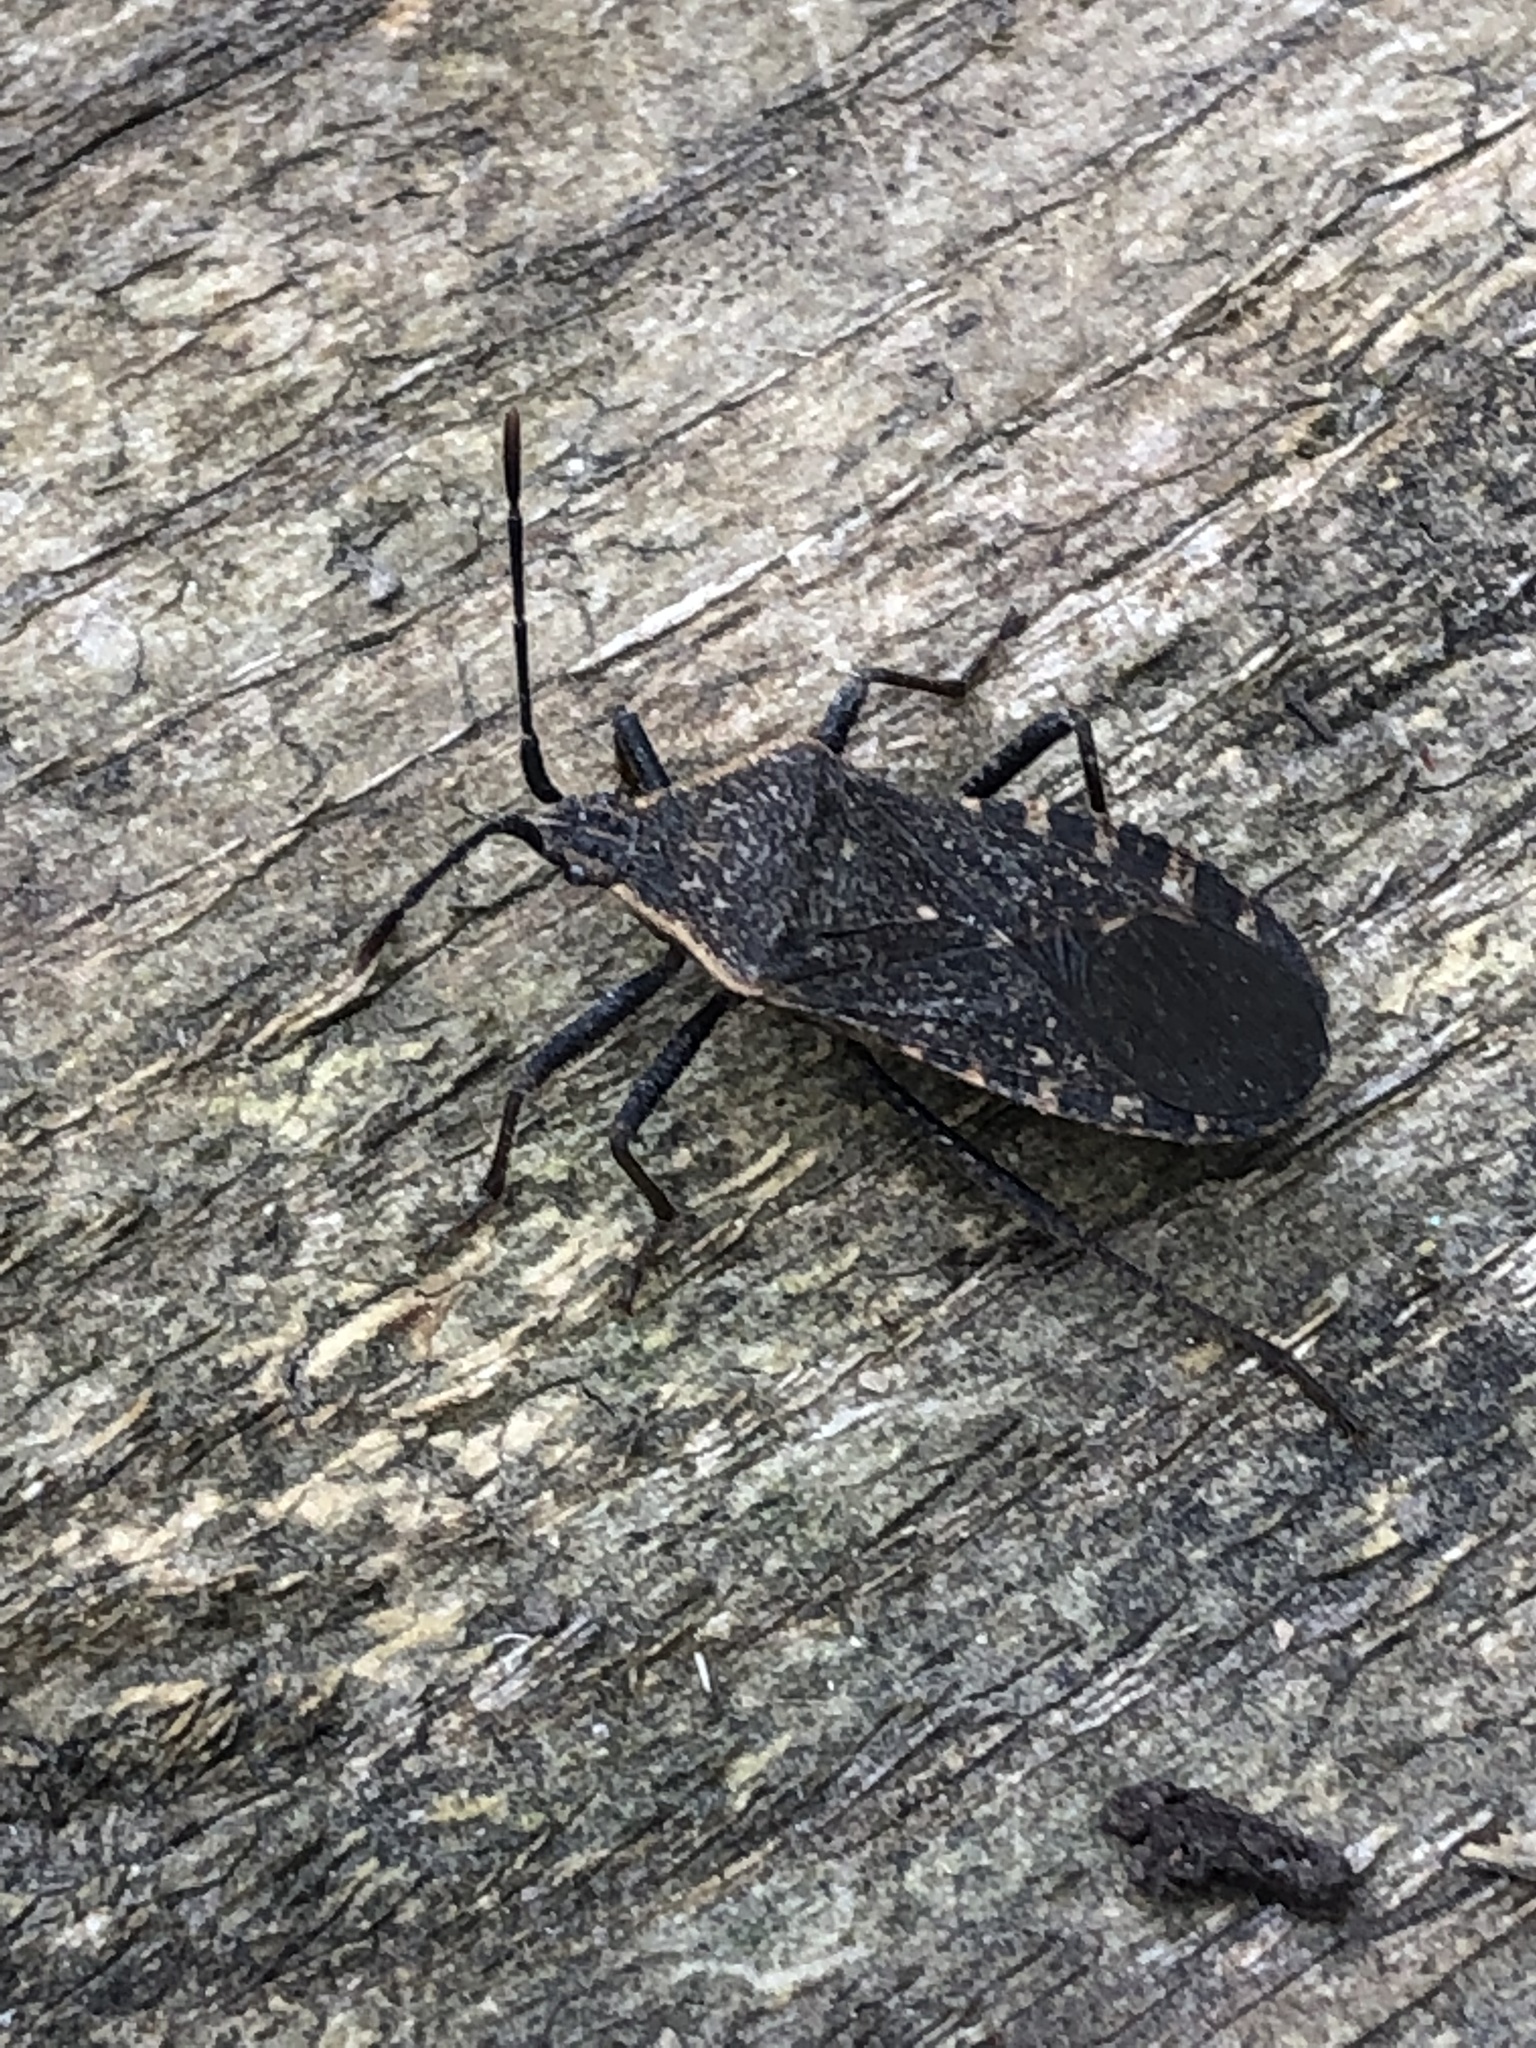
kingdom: Animalia
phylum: Arthropoda
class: Insecta
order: Hemiptera
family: Coreidae
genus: Anasa
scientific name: Anasa tristis
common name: Squash bug
